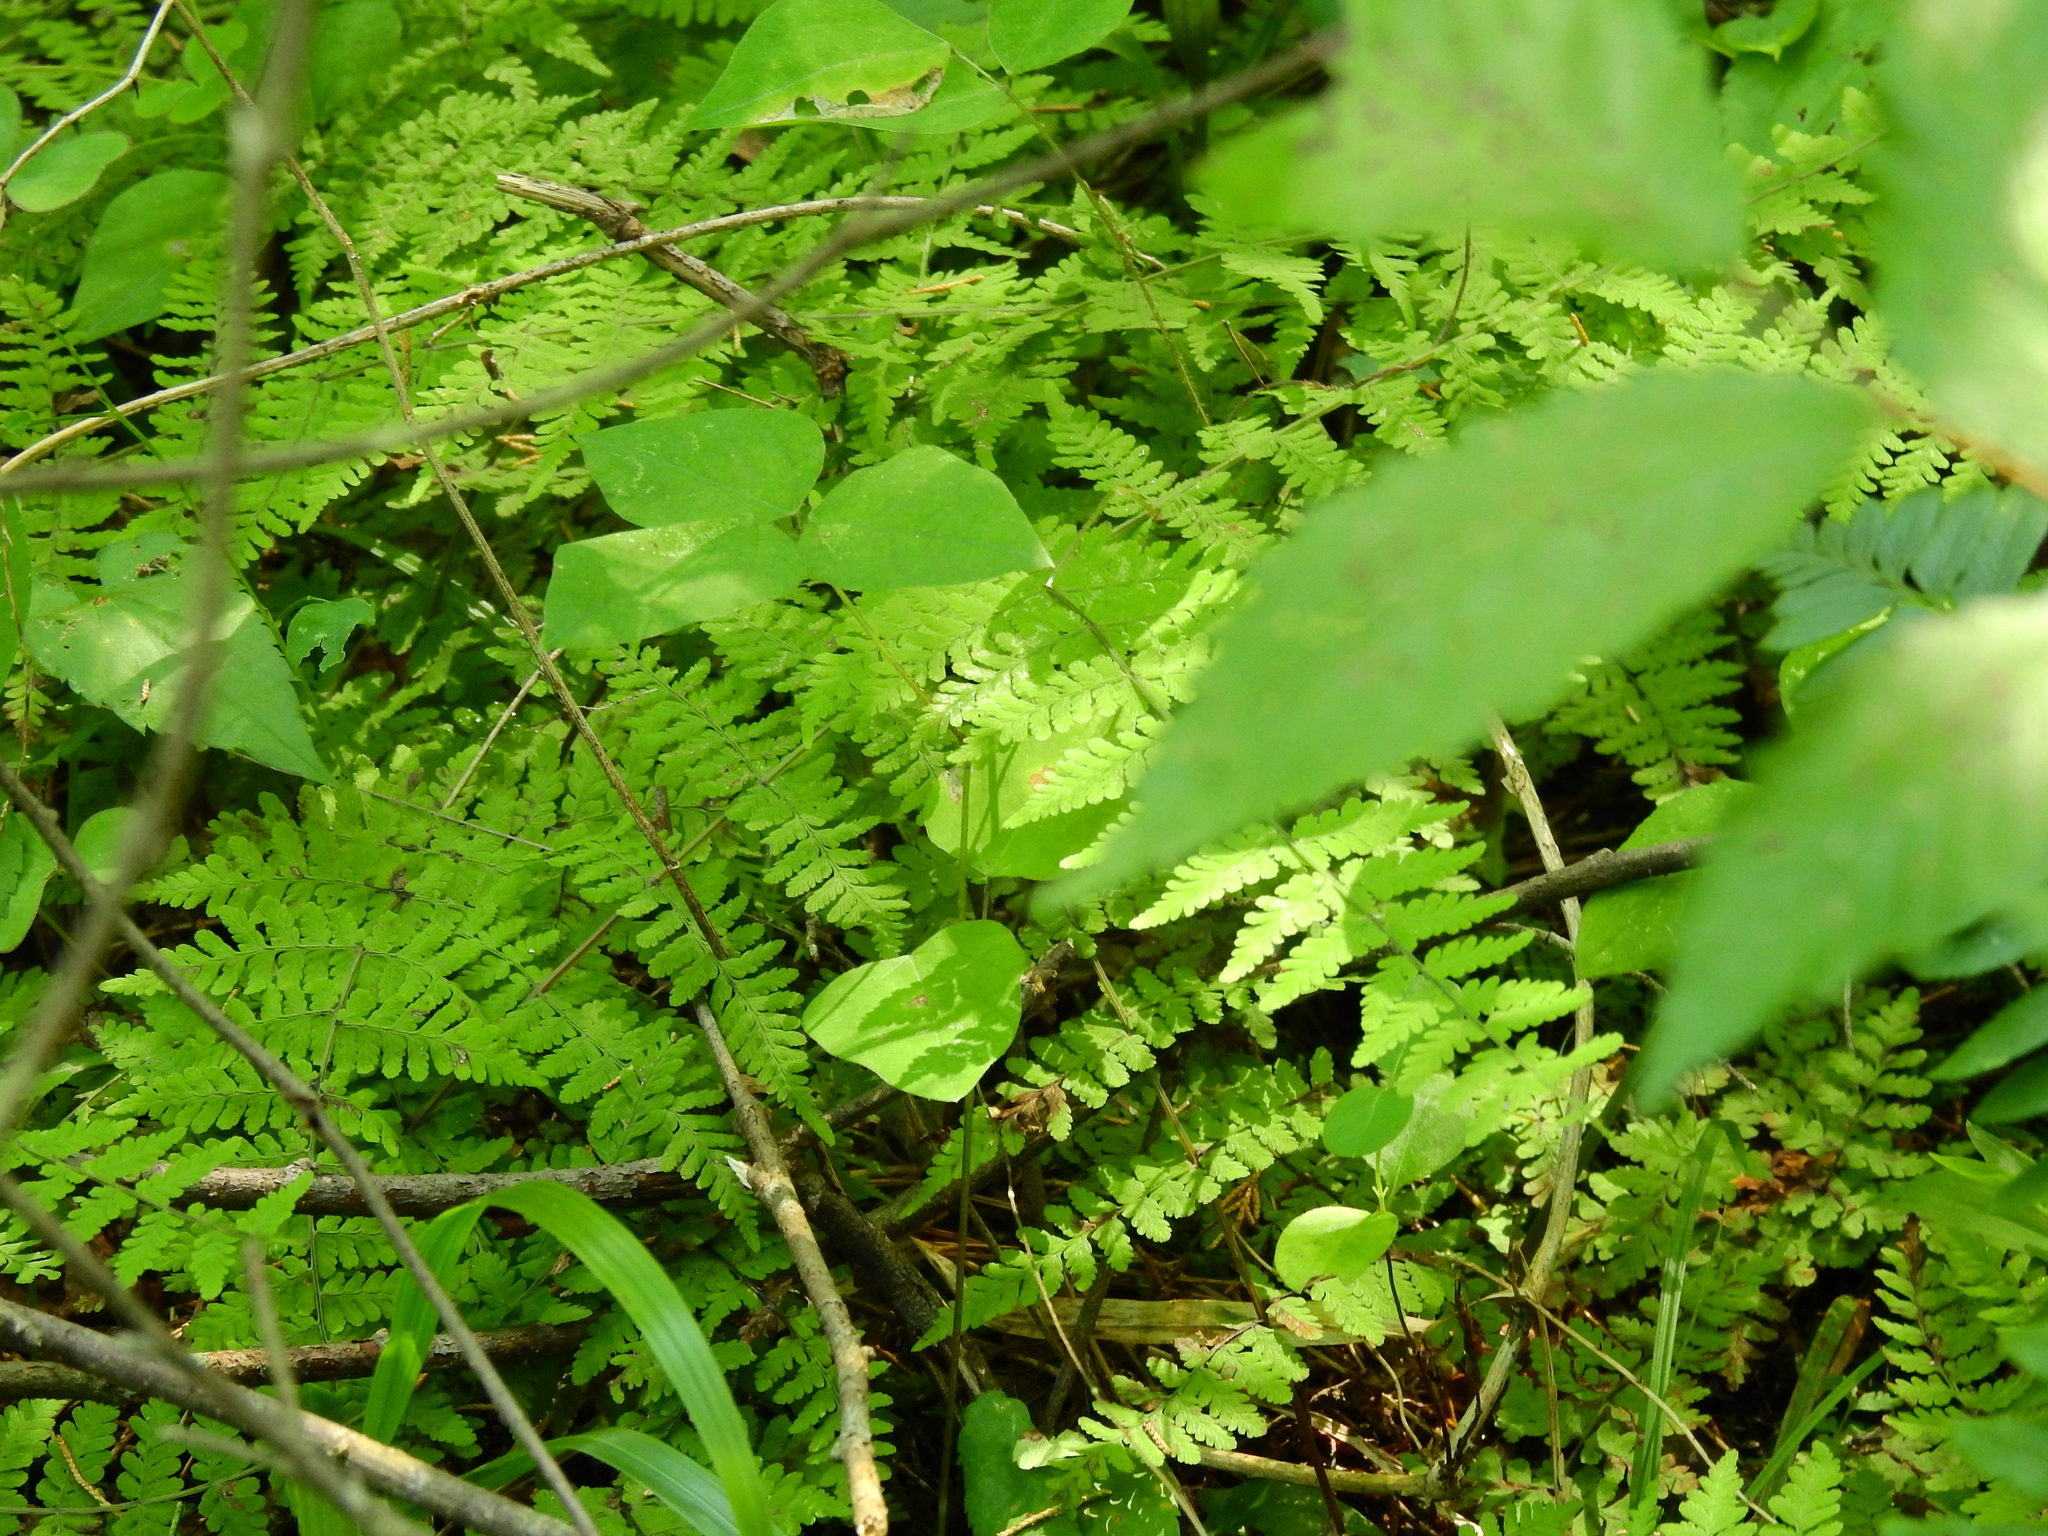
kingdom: Plantae
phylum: Tracheophyta
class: Polypodiopsida
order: Polypodiales
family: Cystopteridaceae
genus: Cystopteris
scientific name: Cystopteris bulbifera
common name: Bulblet bladder fern
